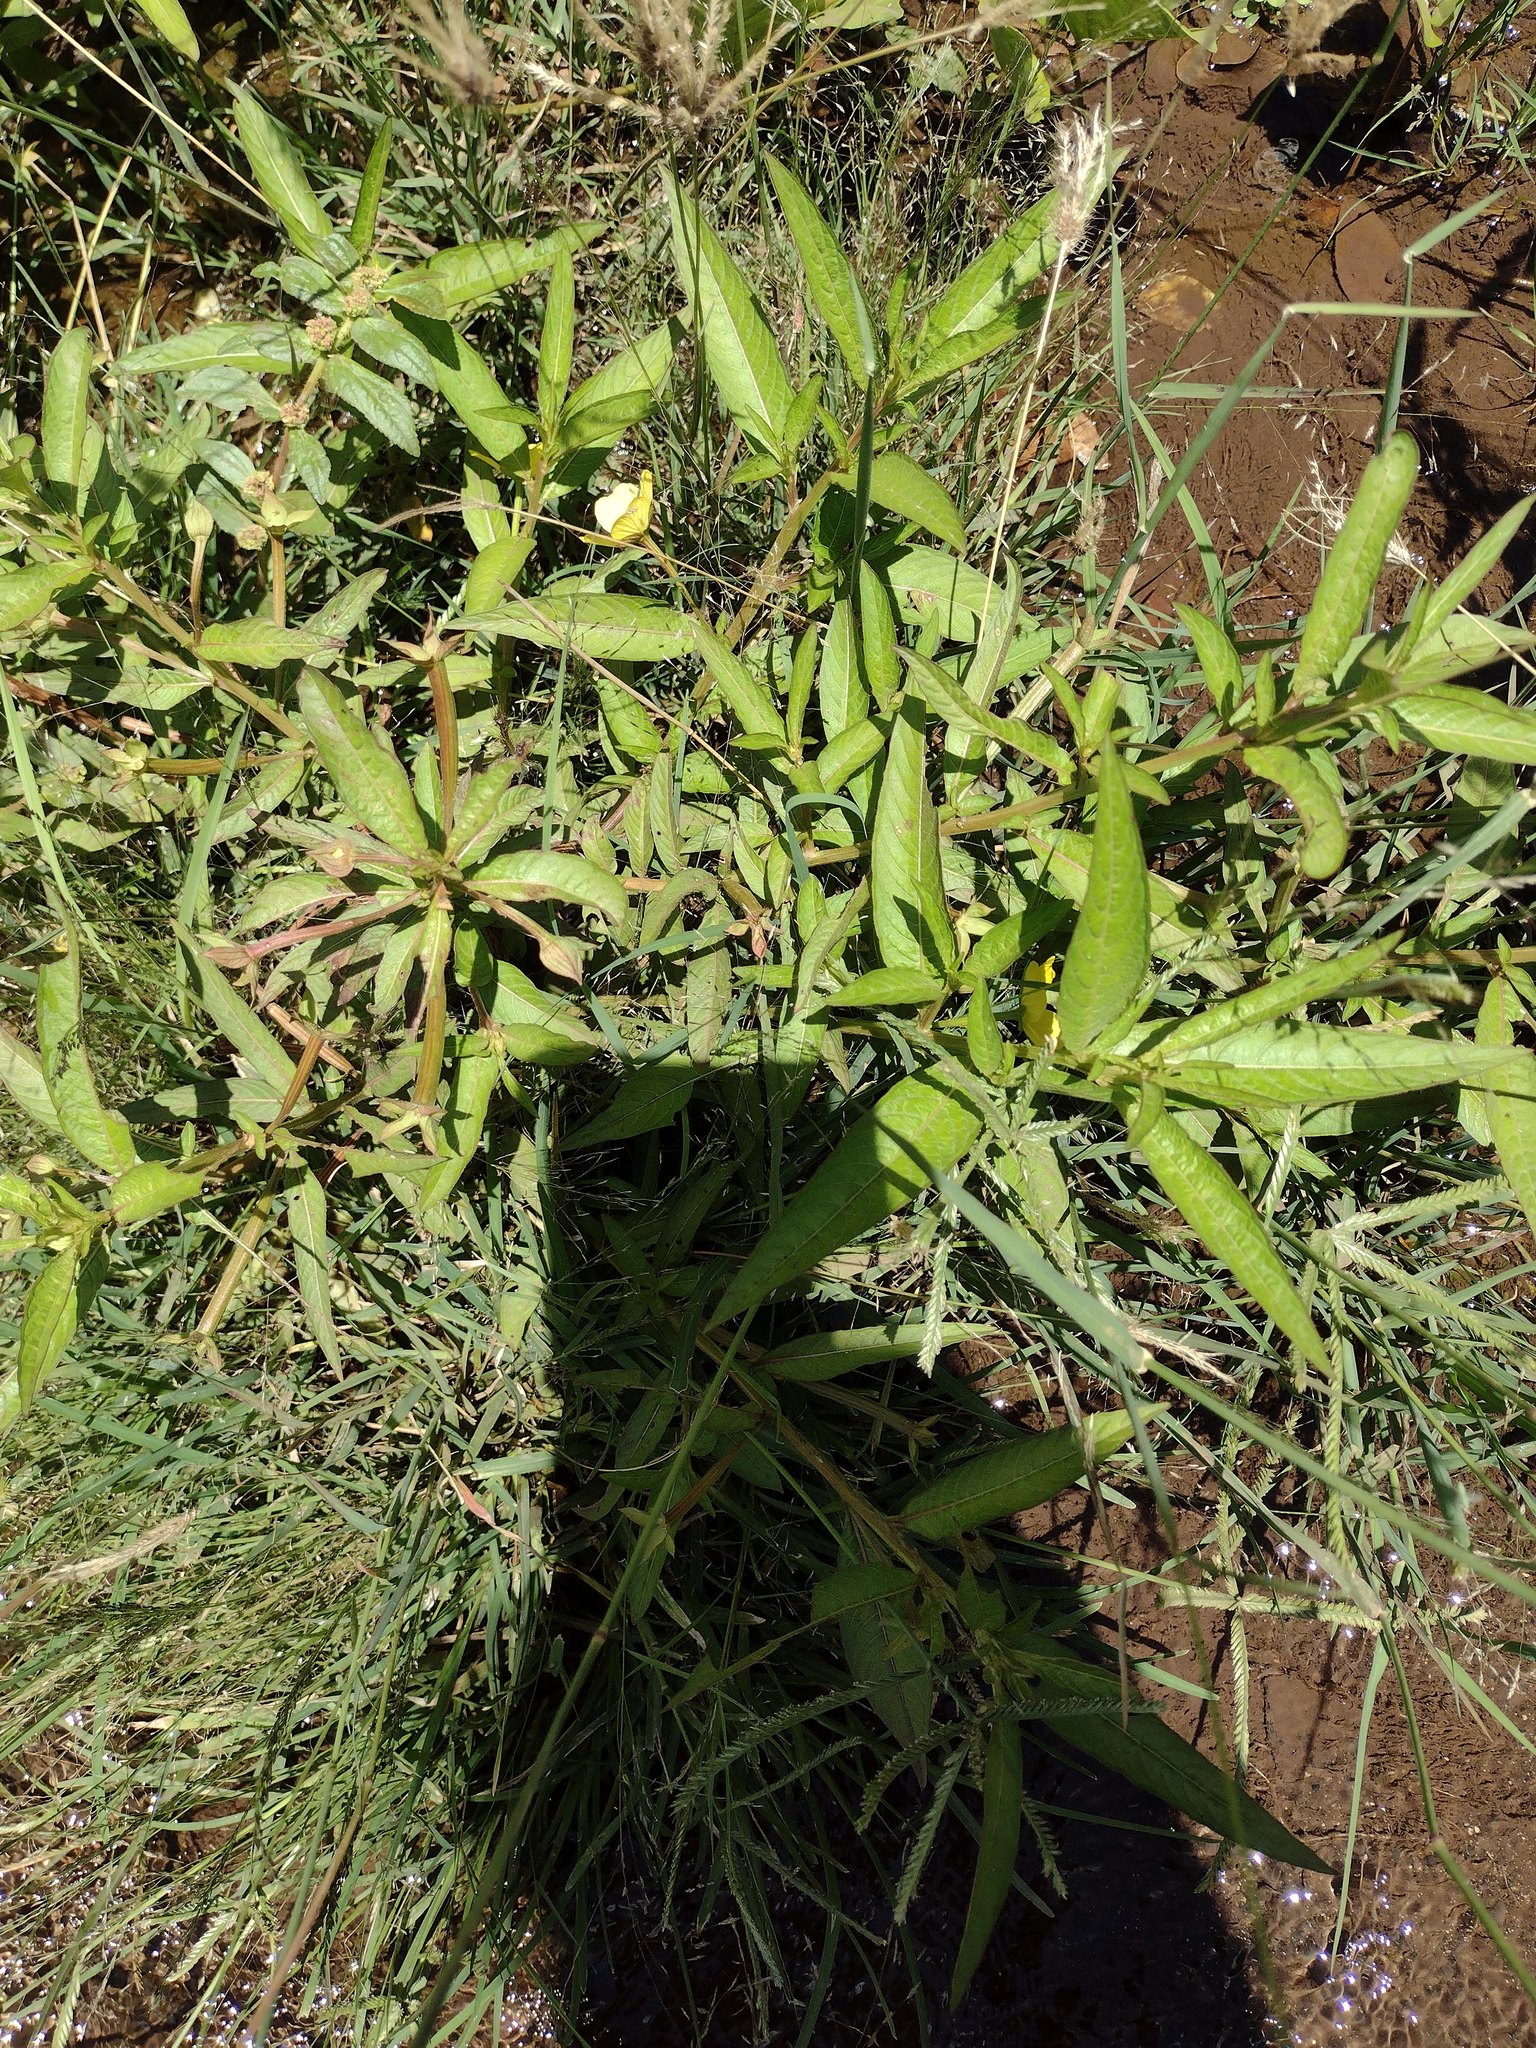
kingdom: Plantae
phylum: Tracheophyta
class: Magnoliopsida
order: Myrtales
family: Onagraceae
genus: Ludwigia
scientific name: Ludwigia octovalvis
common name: Water-primrose
